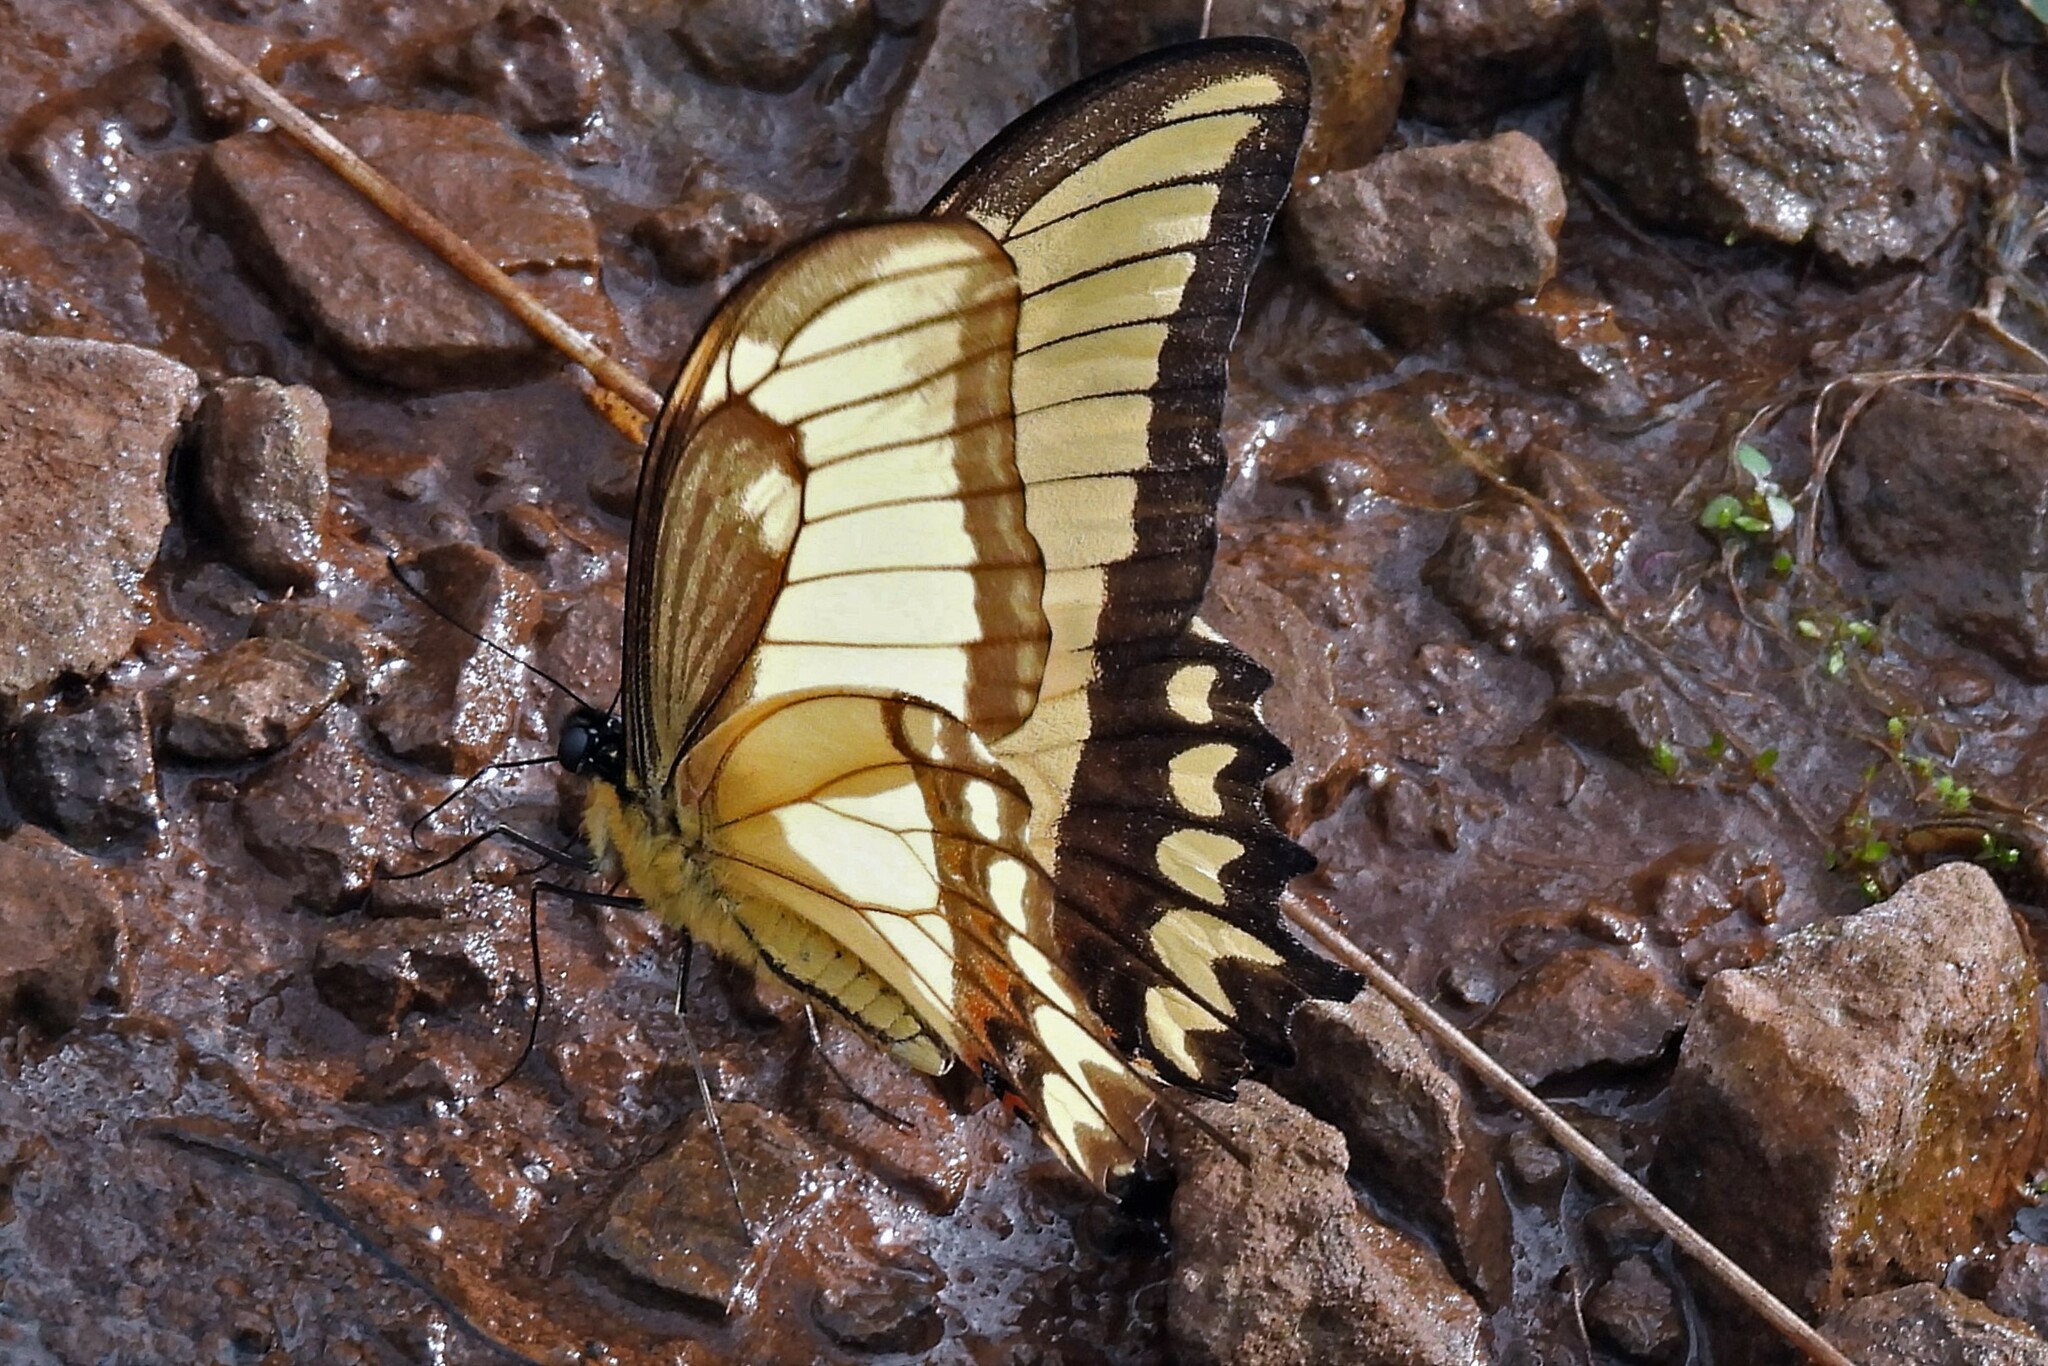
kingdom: Animalia
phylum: Arthropoda
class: Insecta
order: Lepidoptera
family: Papilionidae
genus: Papilio
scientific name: Papilio astyalus
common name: Astyalus swallowtail
